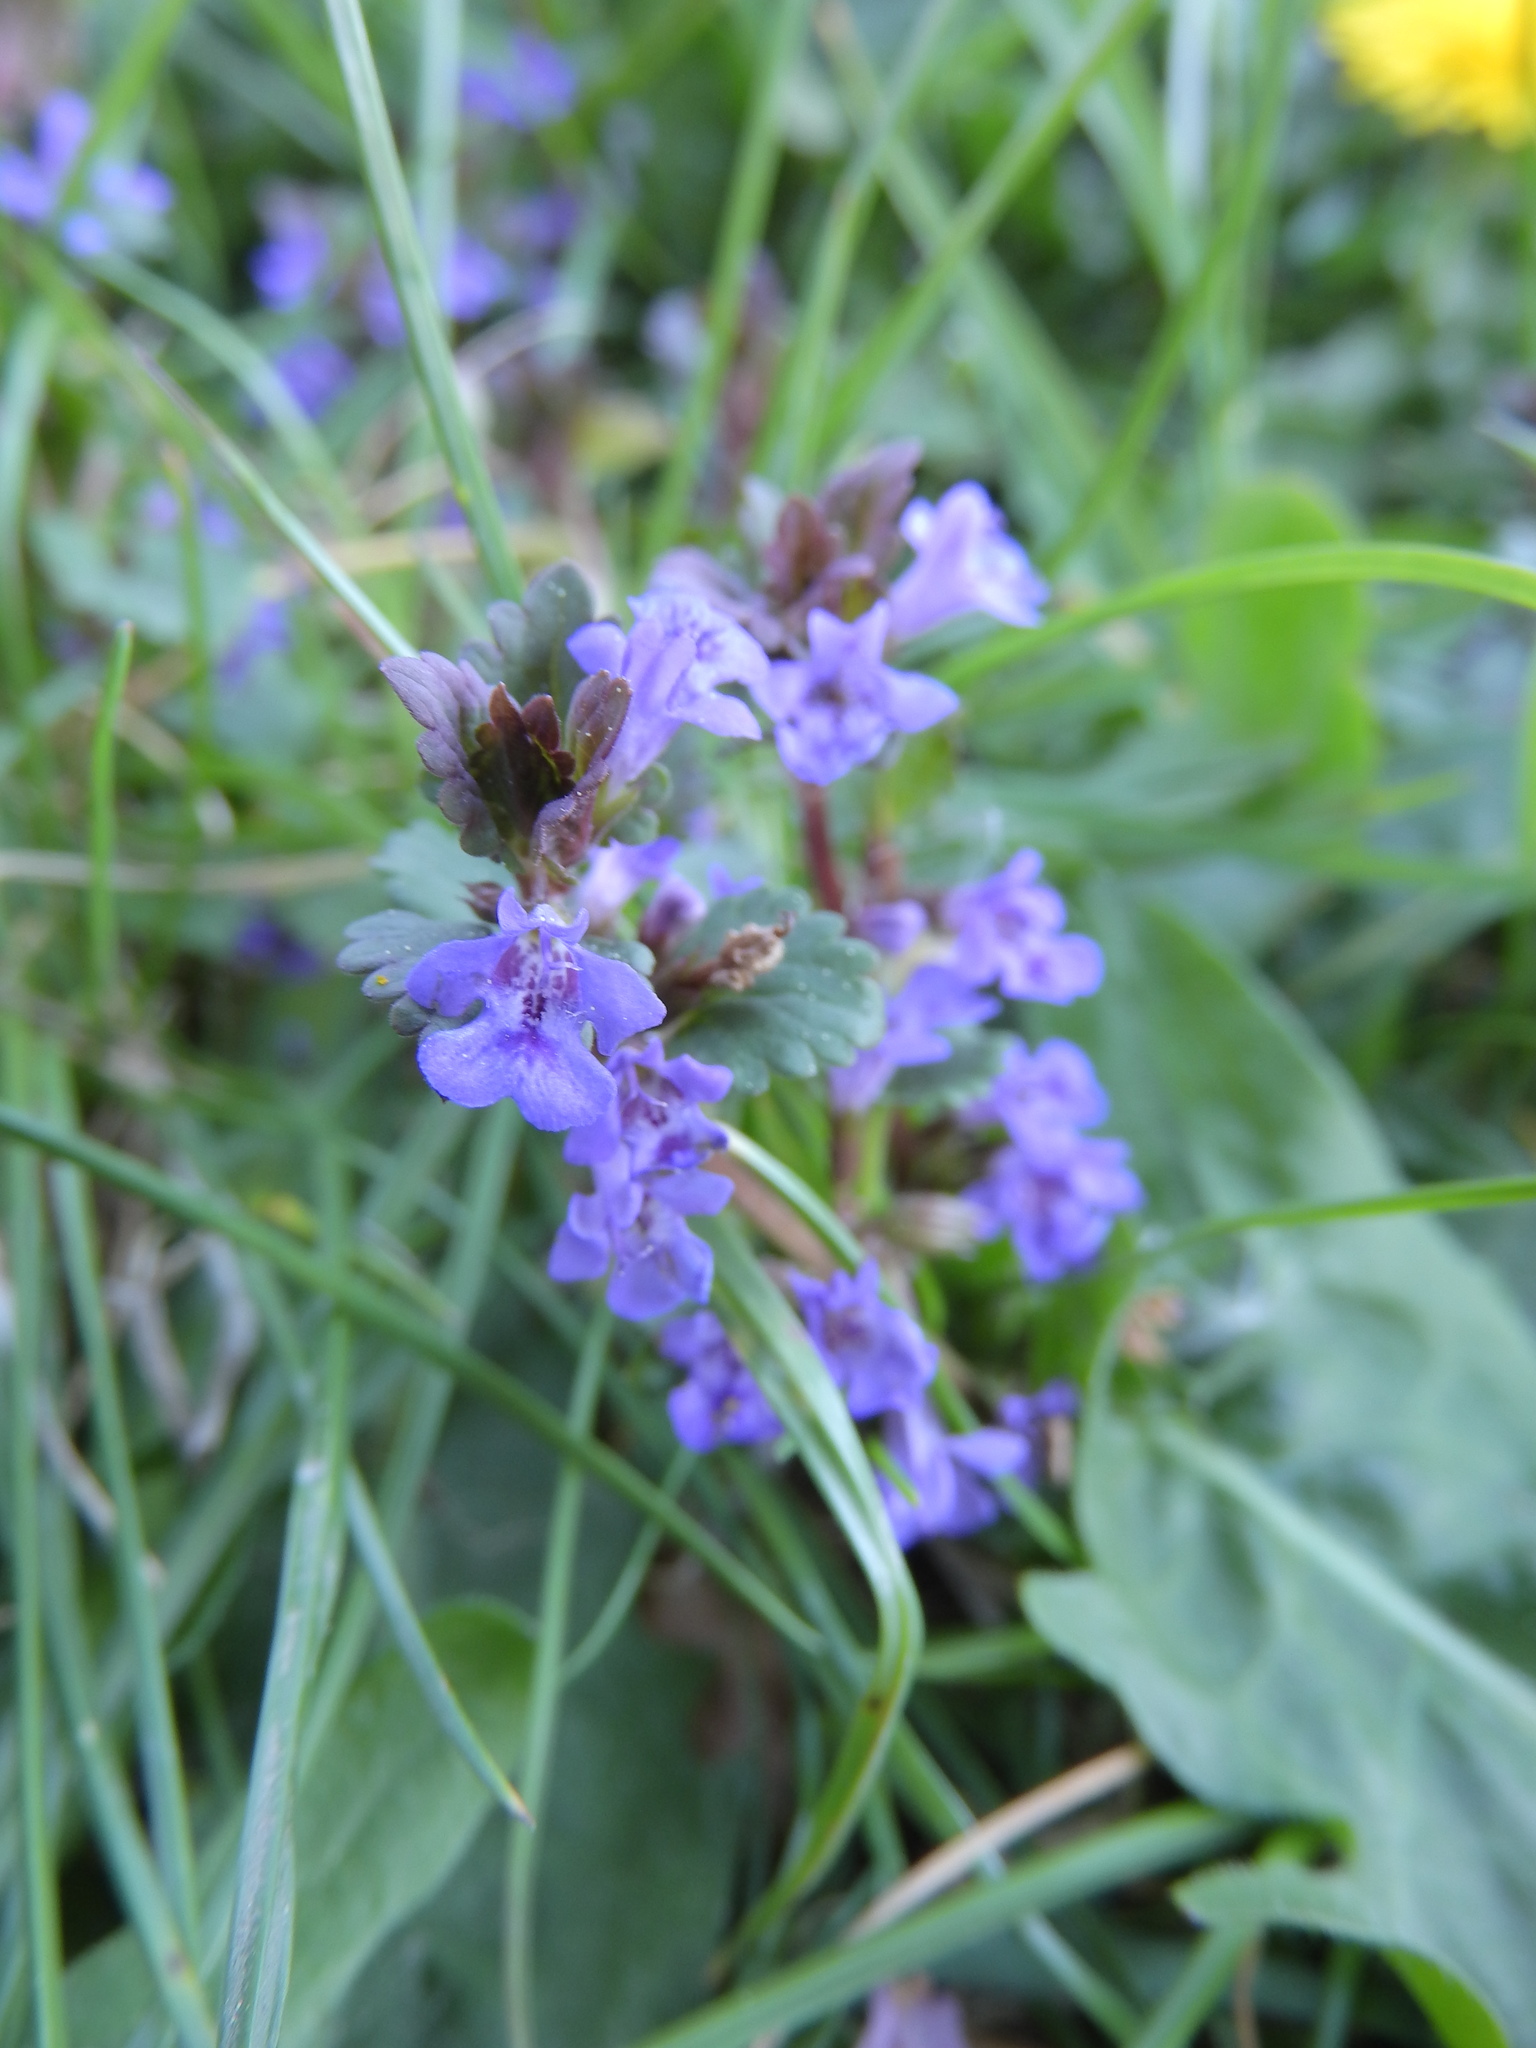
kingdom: Plantae
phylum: Tracheophyta
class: Magnoliopsida
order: Lamiales
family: Lamiaceae
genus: Glechoma
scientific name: Glechoma hederacea
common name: Ground ivy
